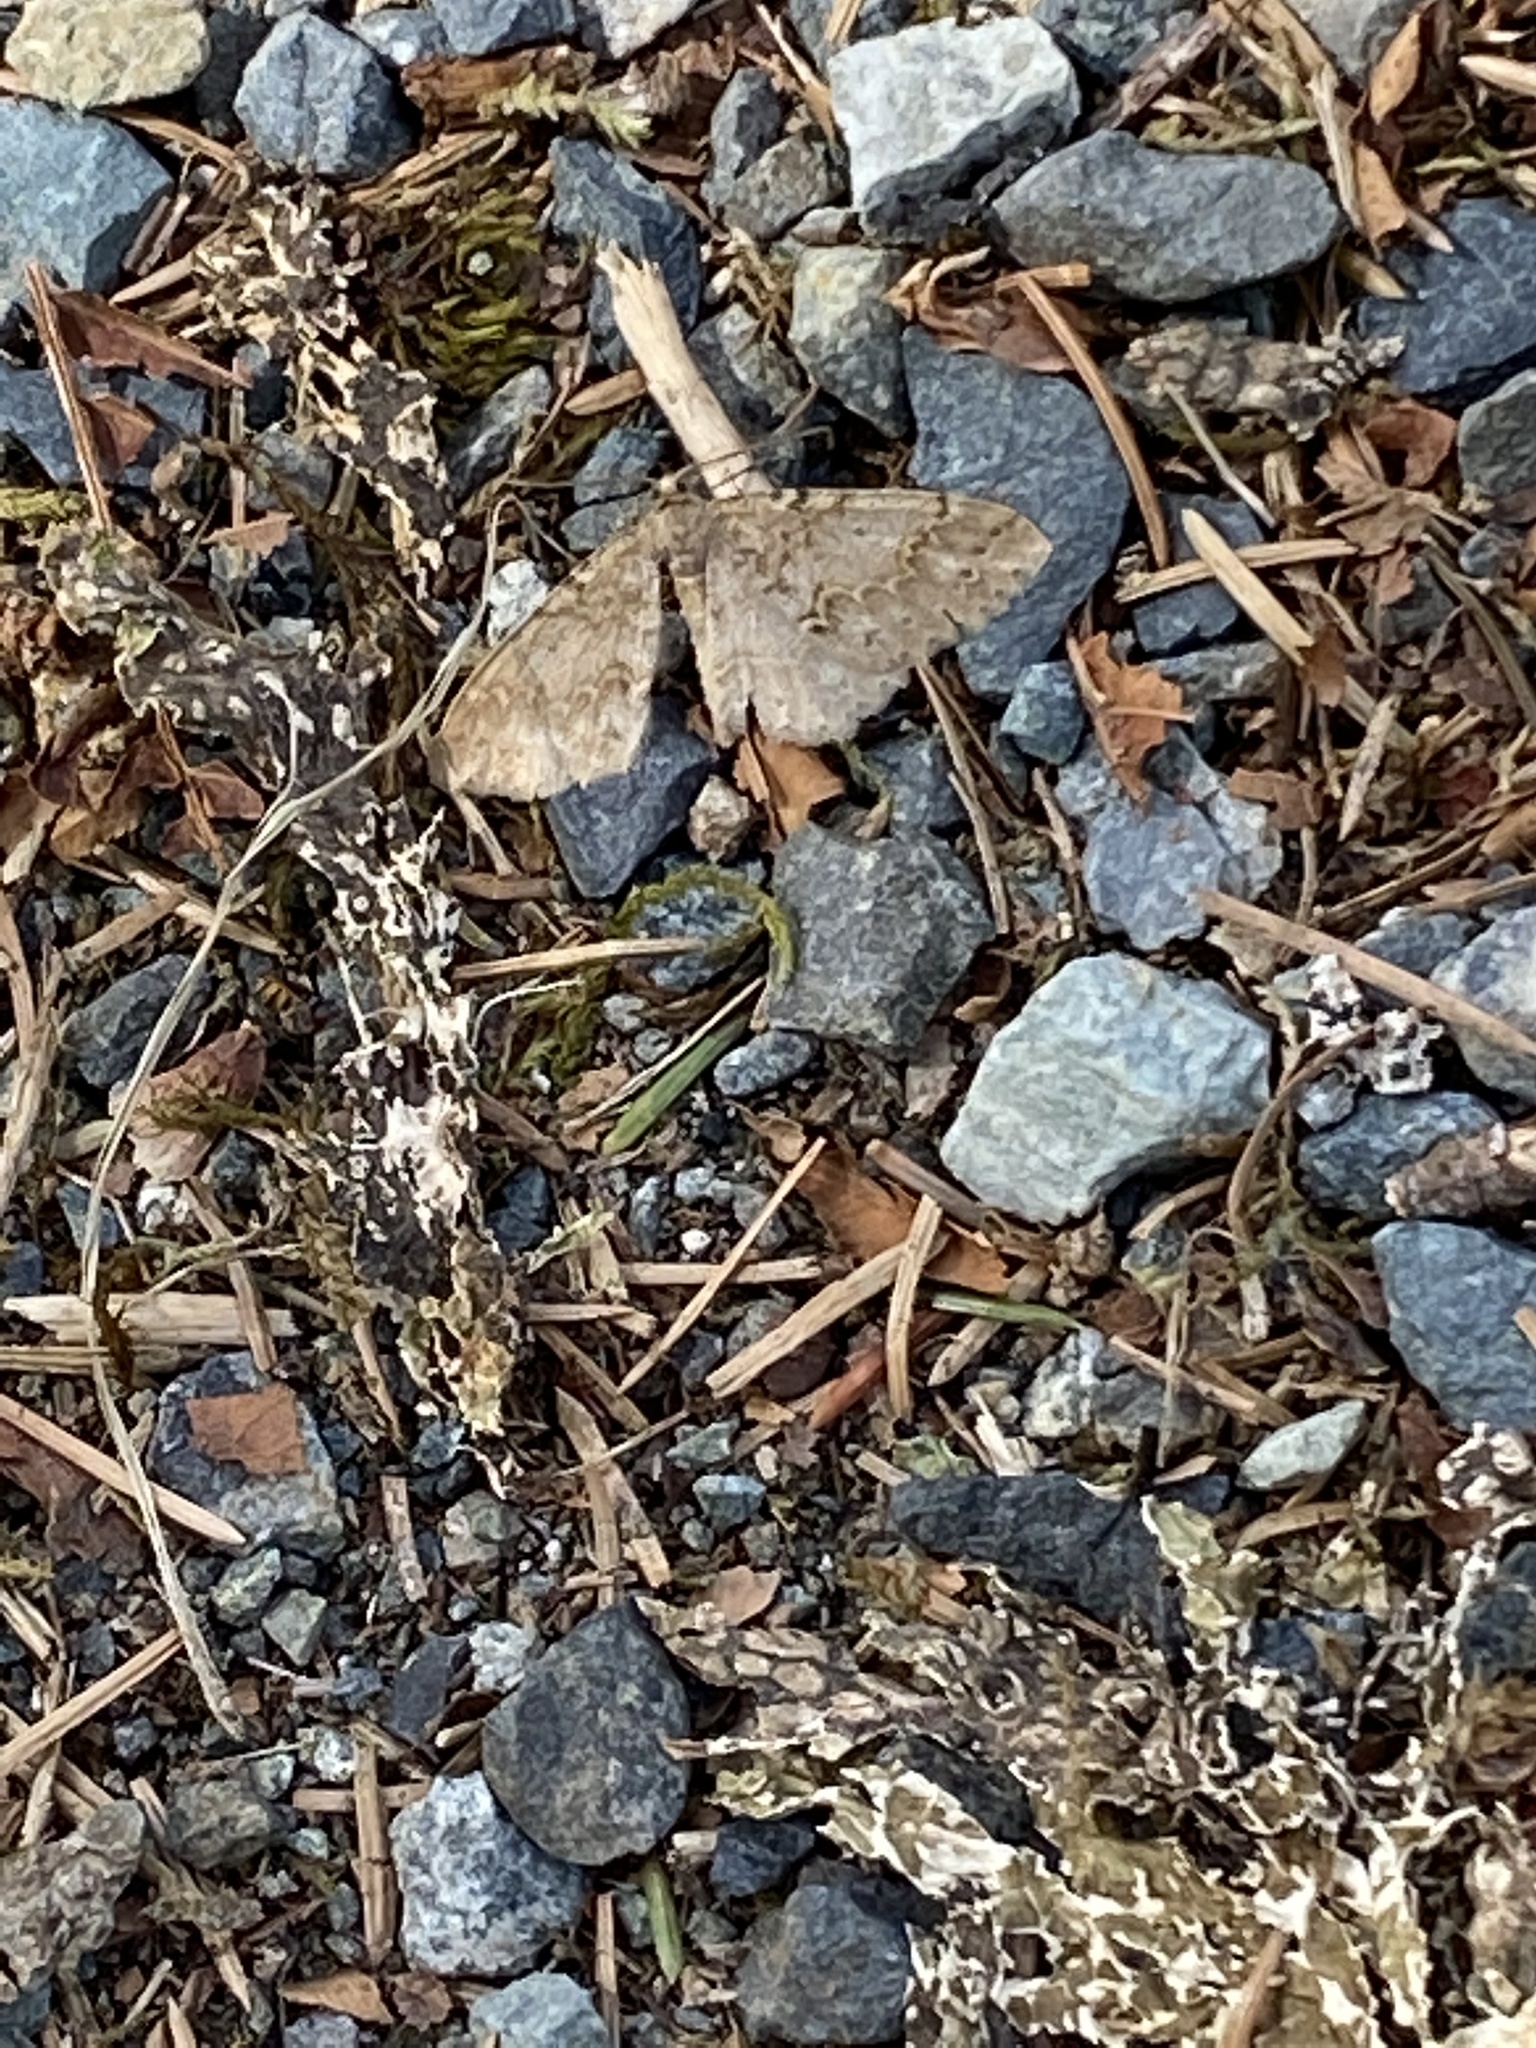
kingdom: Animalia
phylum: Arthropoda
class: Insecta
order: Lepidoptera
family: Geometridae
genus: Melanolophia
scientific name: Melanolophia imitata
